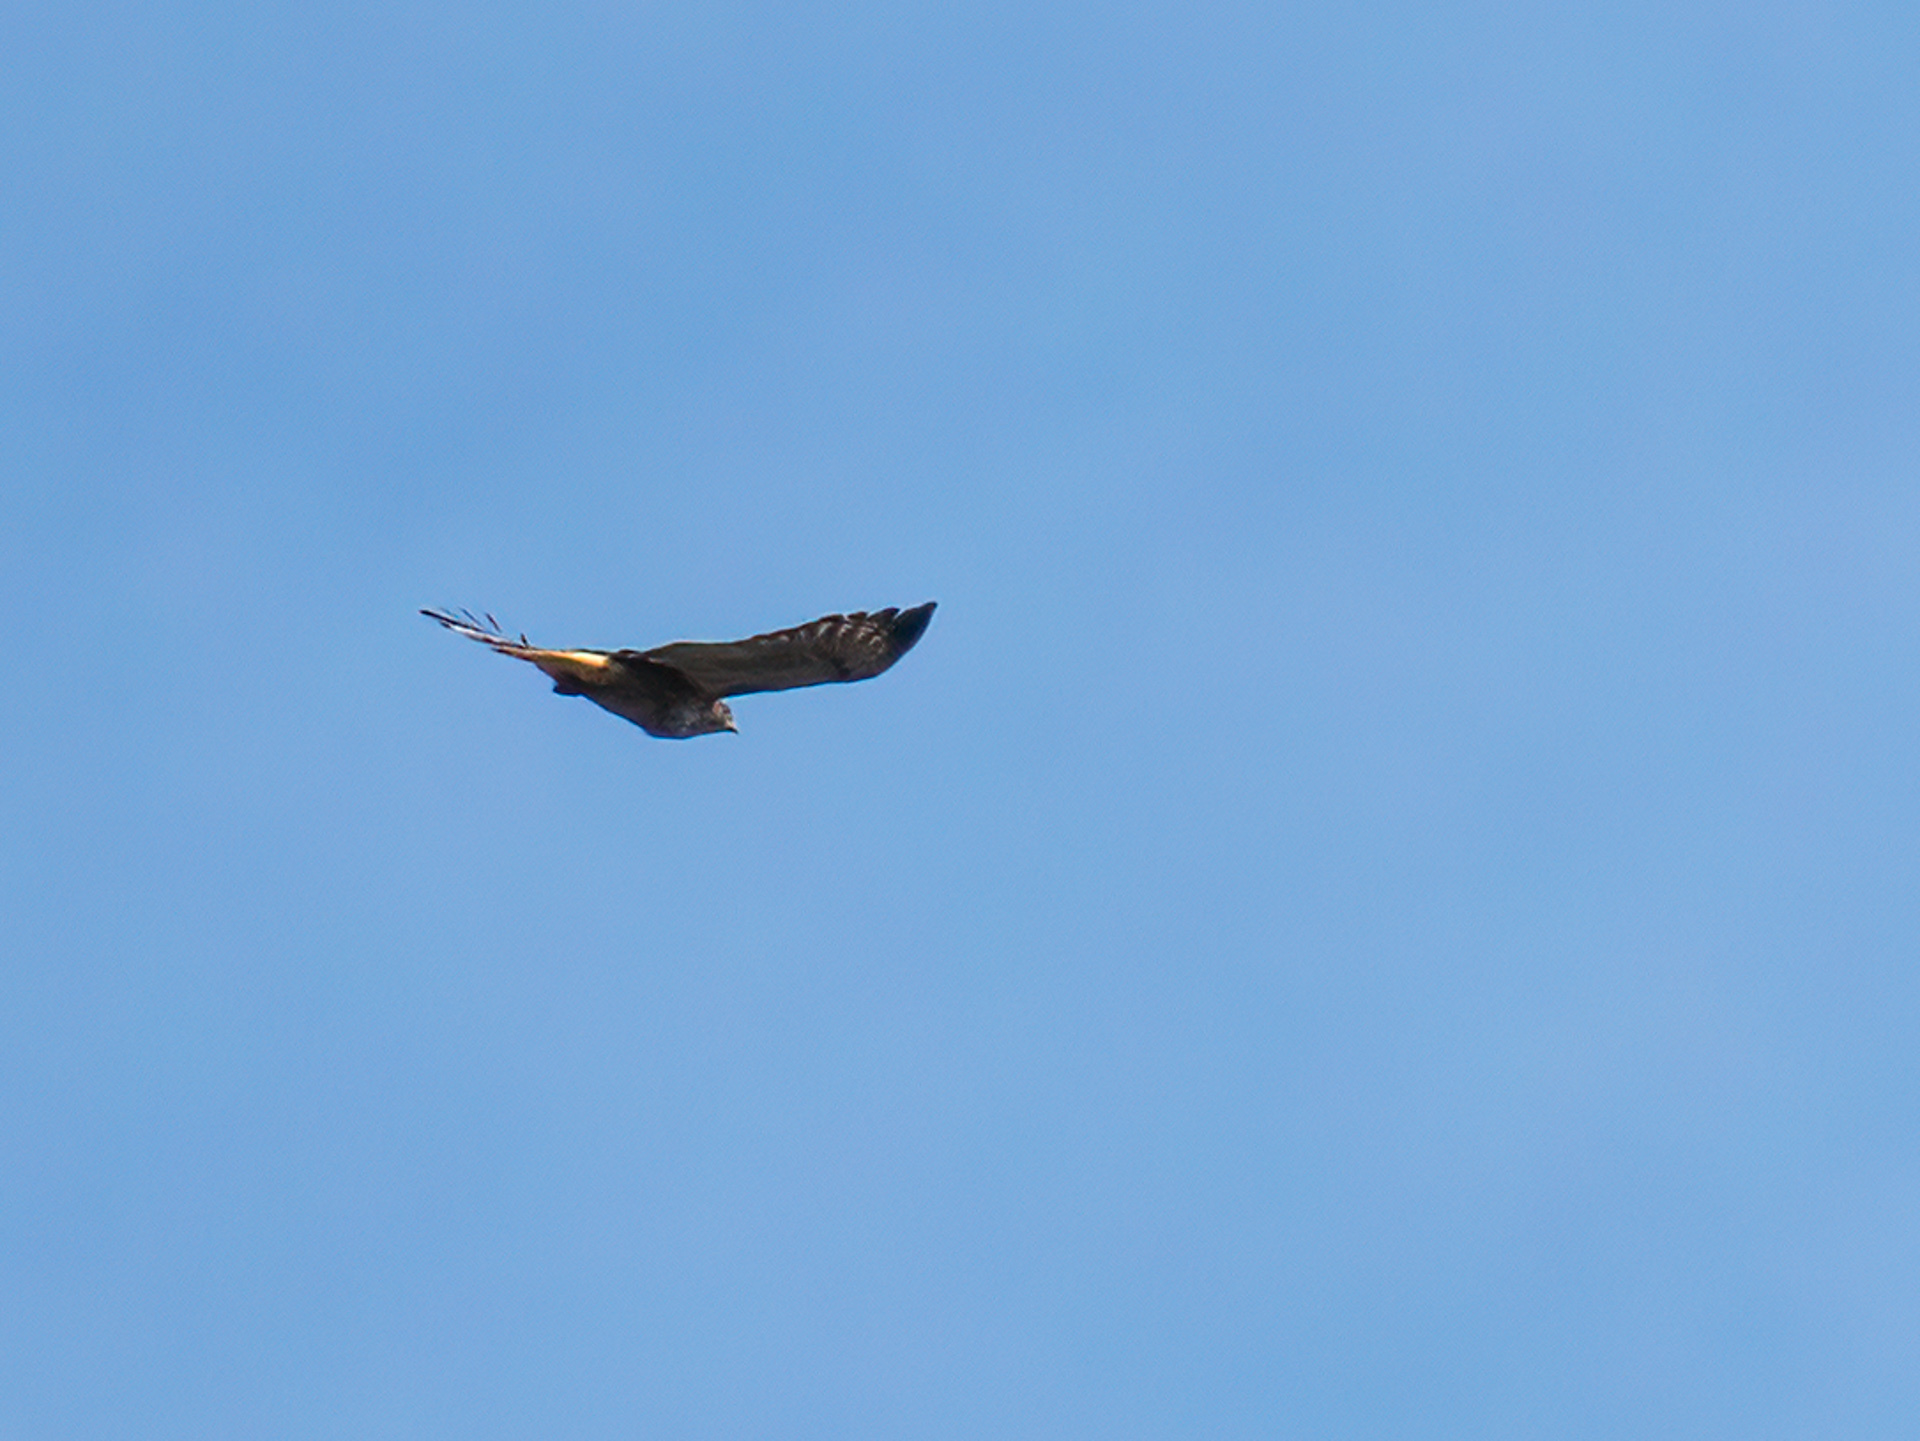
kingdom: Animalia
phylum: Chordata
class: Aves
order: Accipitriformes
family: Accipitridae
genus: Buteo
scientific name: Buteo jamaicensis
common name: Red-tailed hawk
